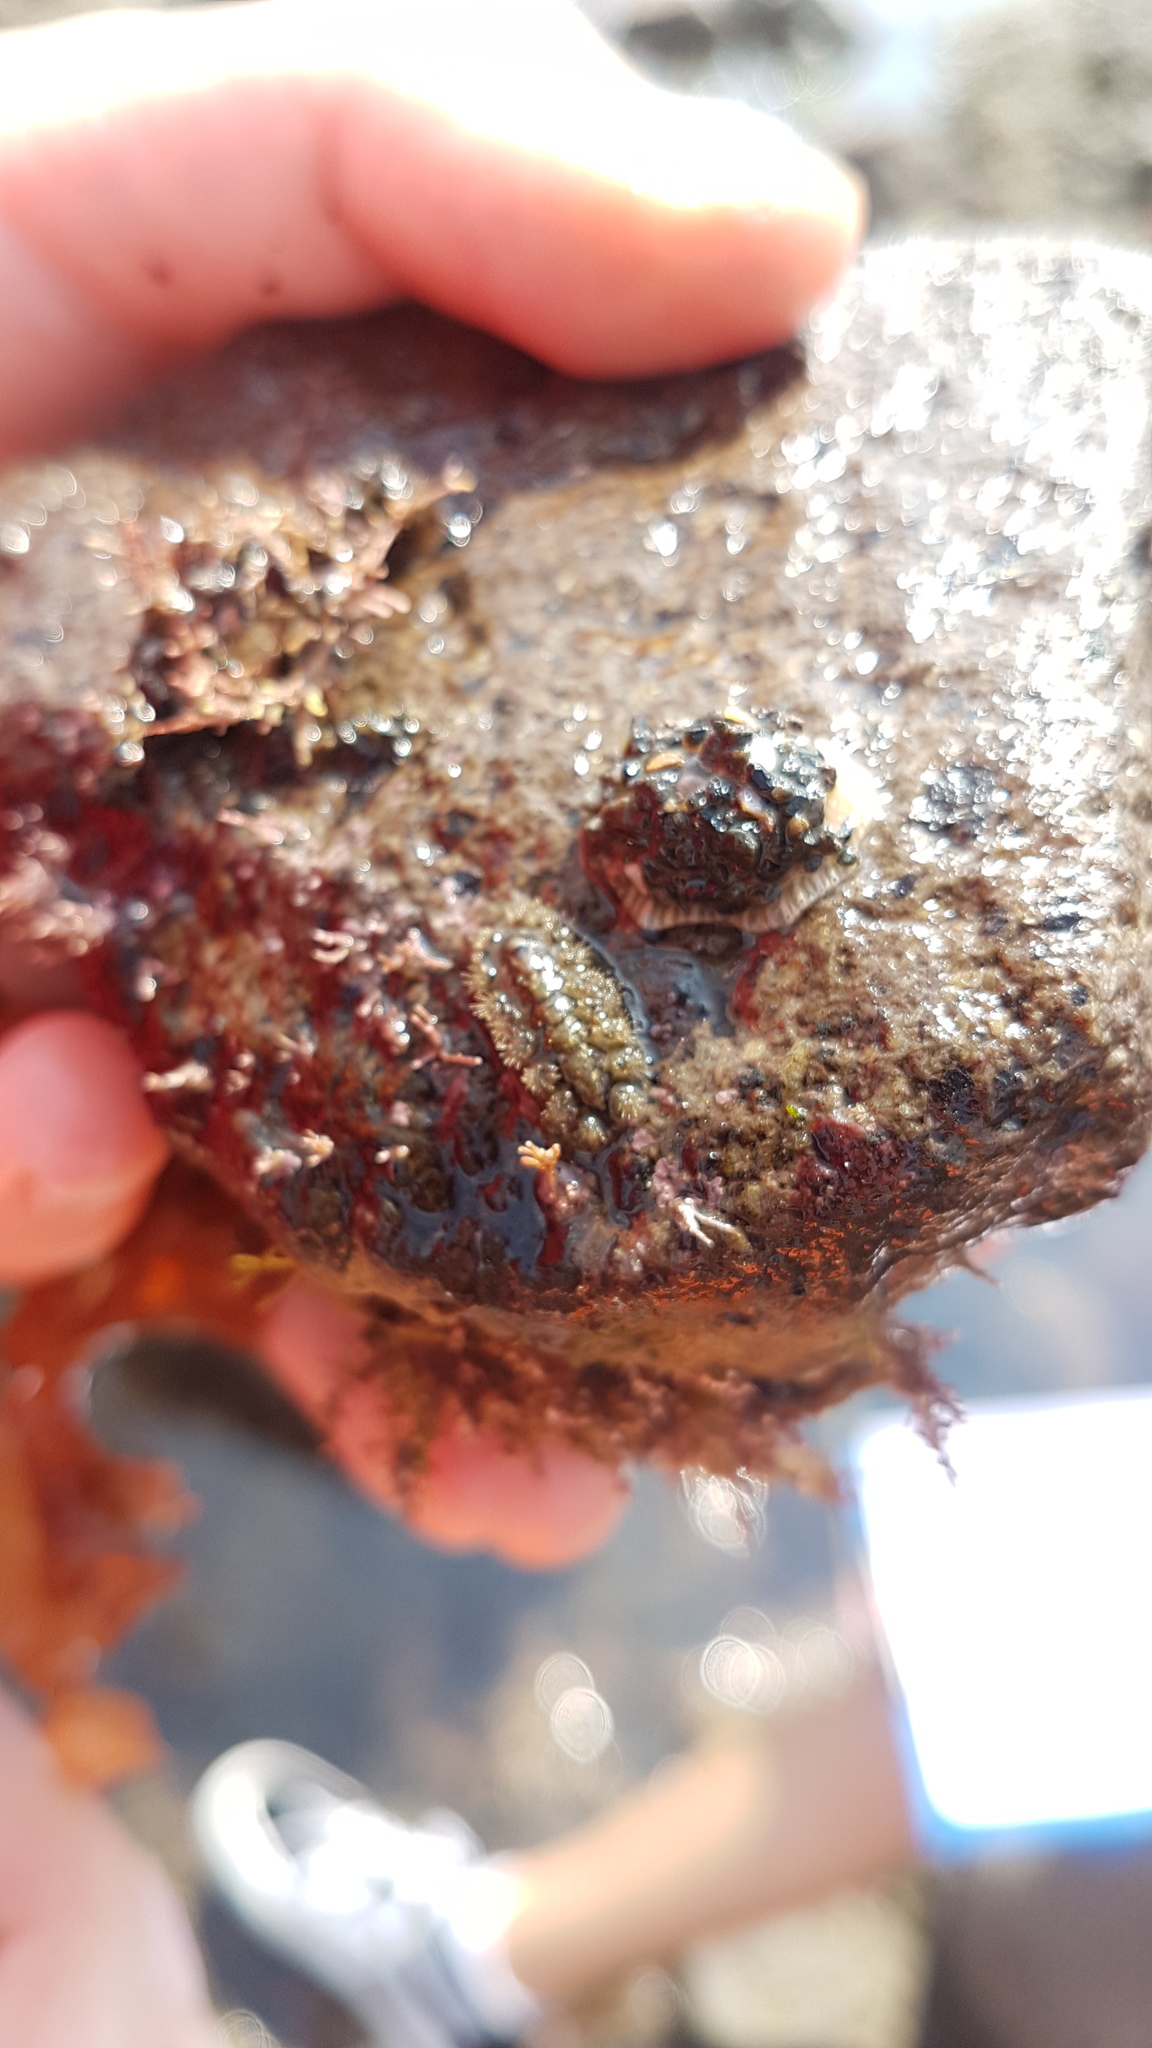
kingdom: Animalia
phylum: Mollusca
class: Polyplacophora
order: Chitonida
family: Acanthochitonidae
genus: Acanthochitona
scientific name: Acanthochitona zelandica
